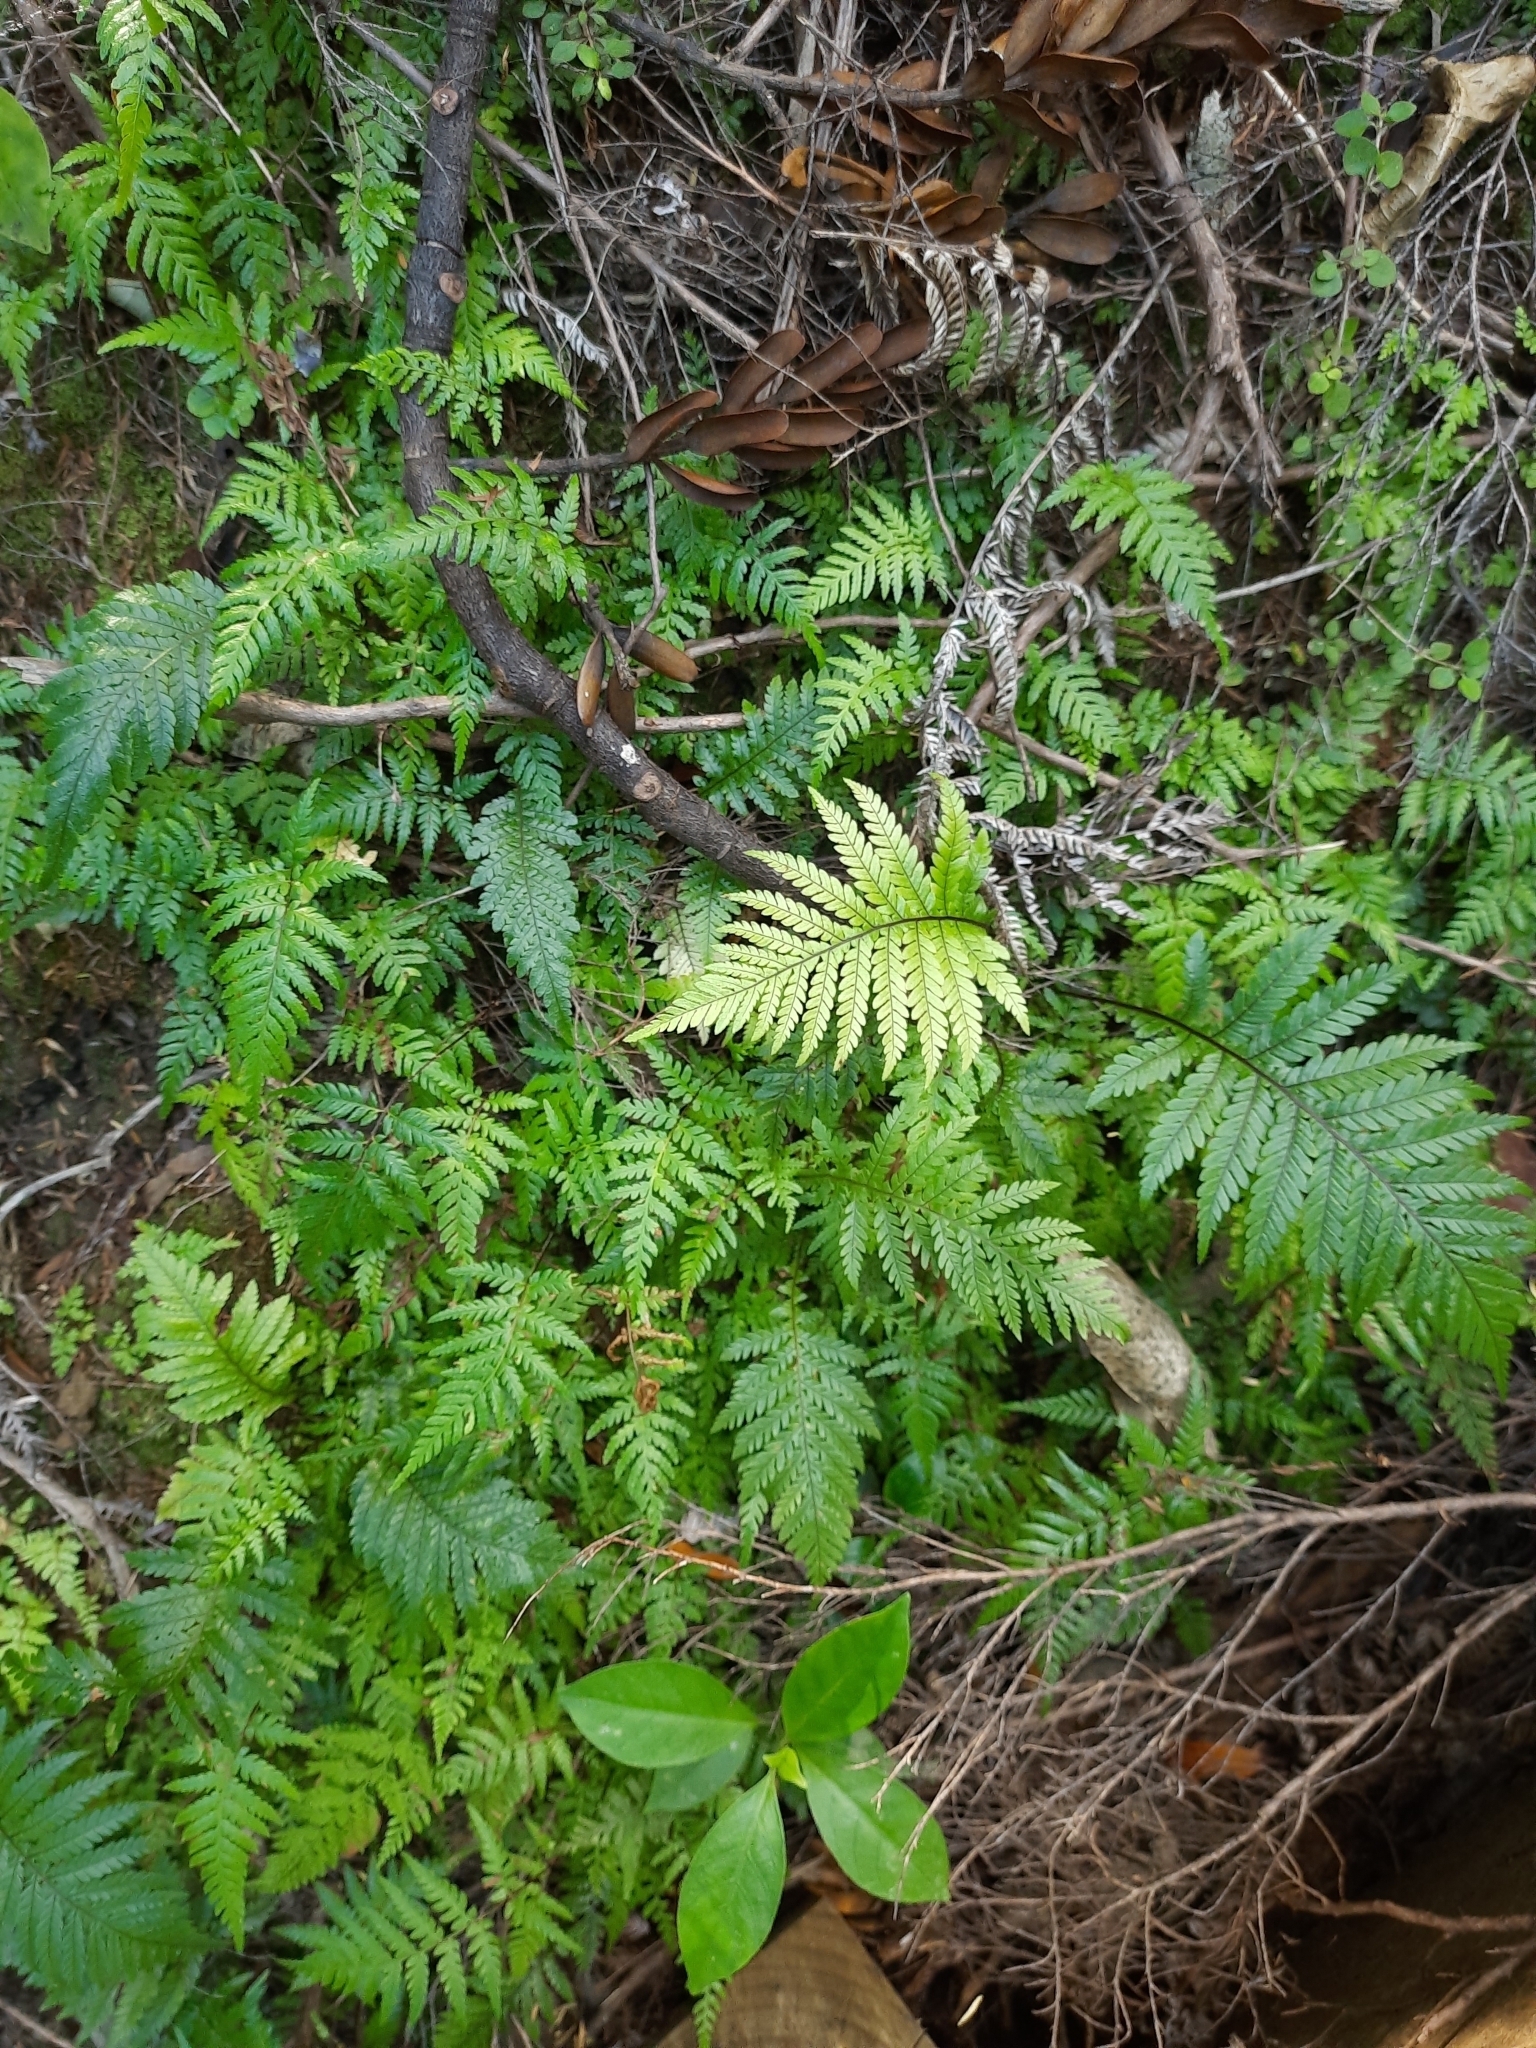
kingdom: Plantae
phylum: Tracheophyta
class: Polypodiopsida
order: Polypodiales
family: Blechnaceae
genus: Diploblechnum
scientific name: Diploblechnum fraseri
